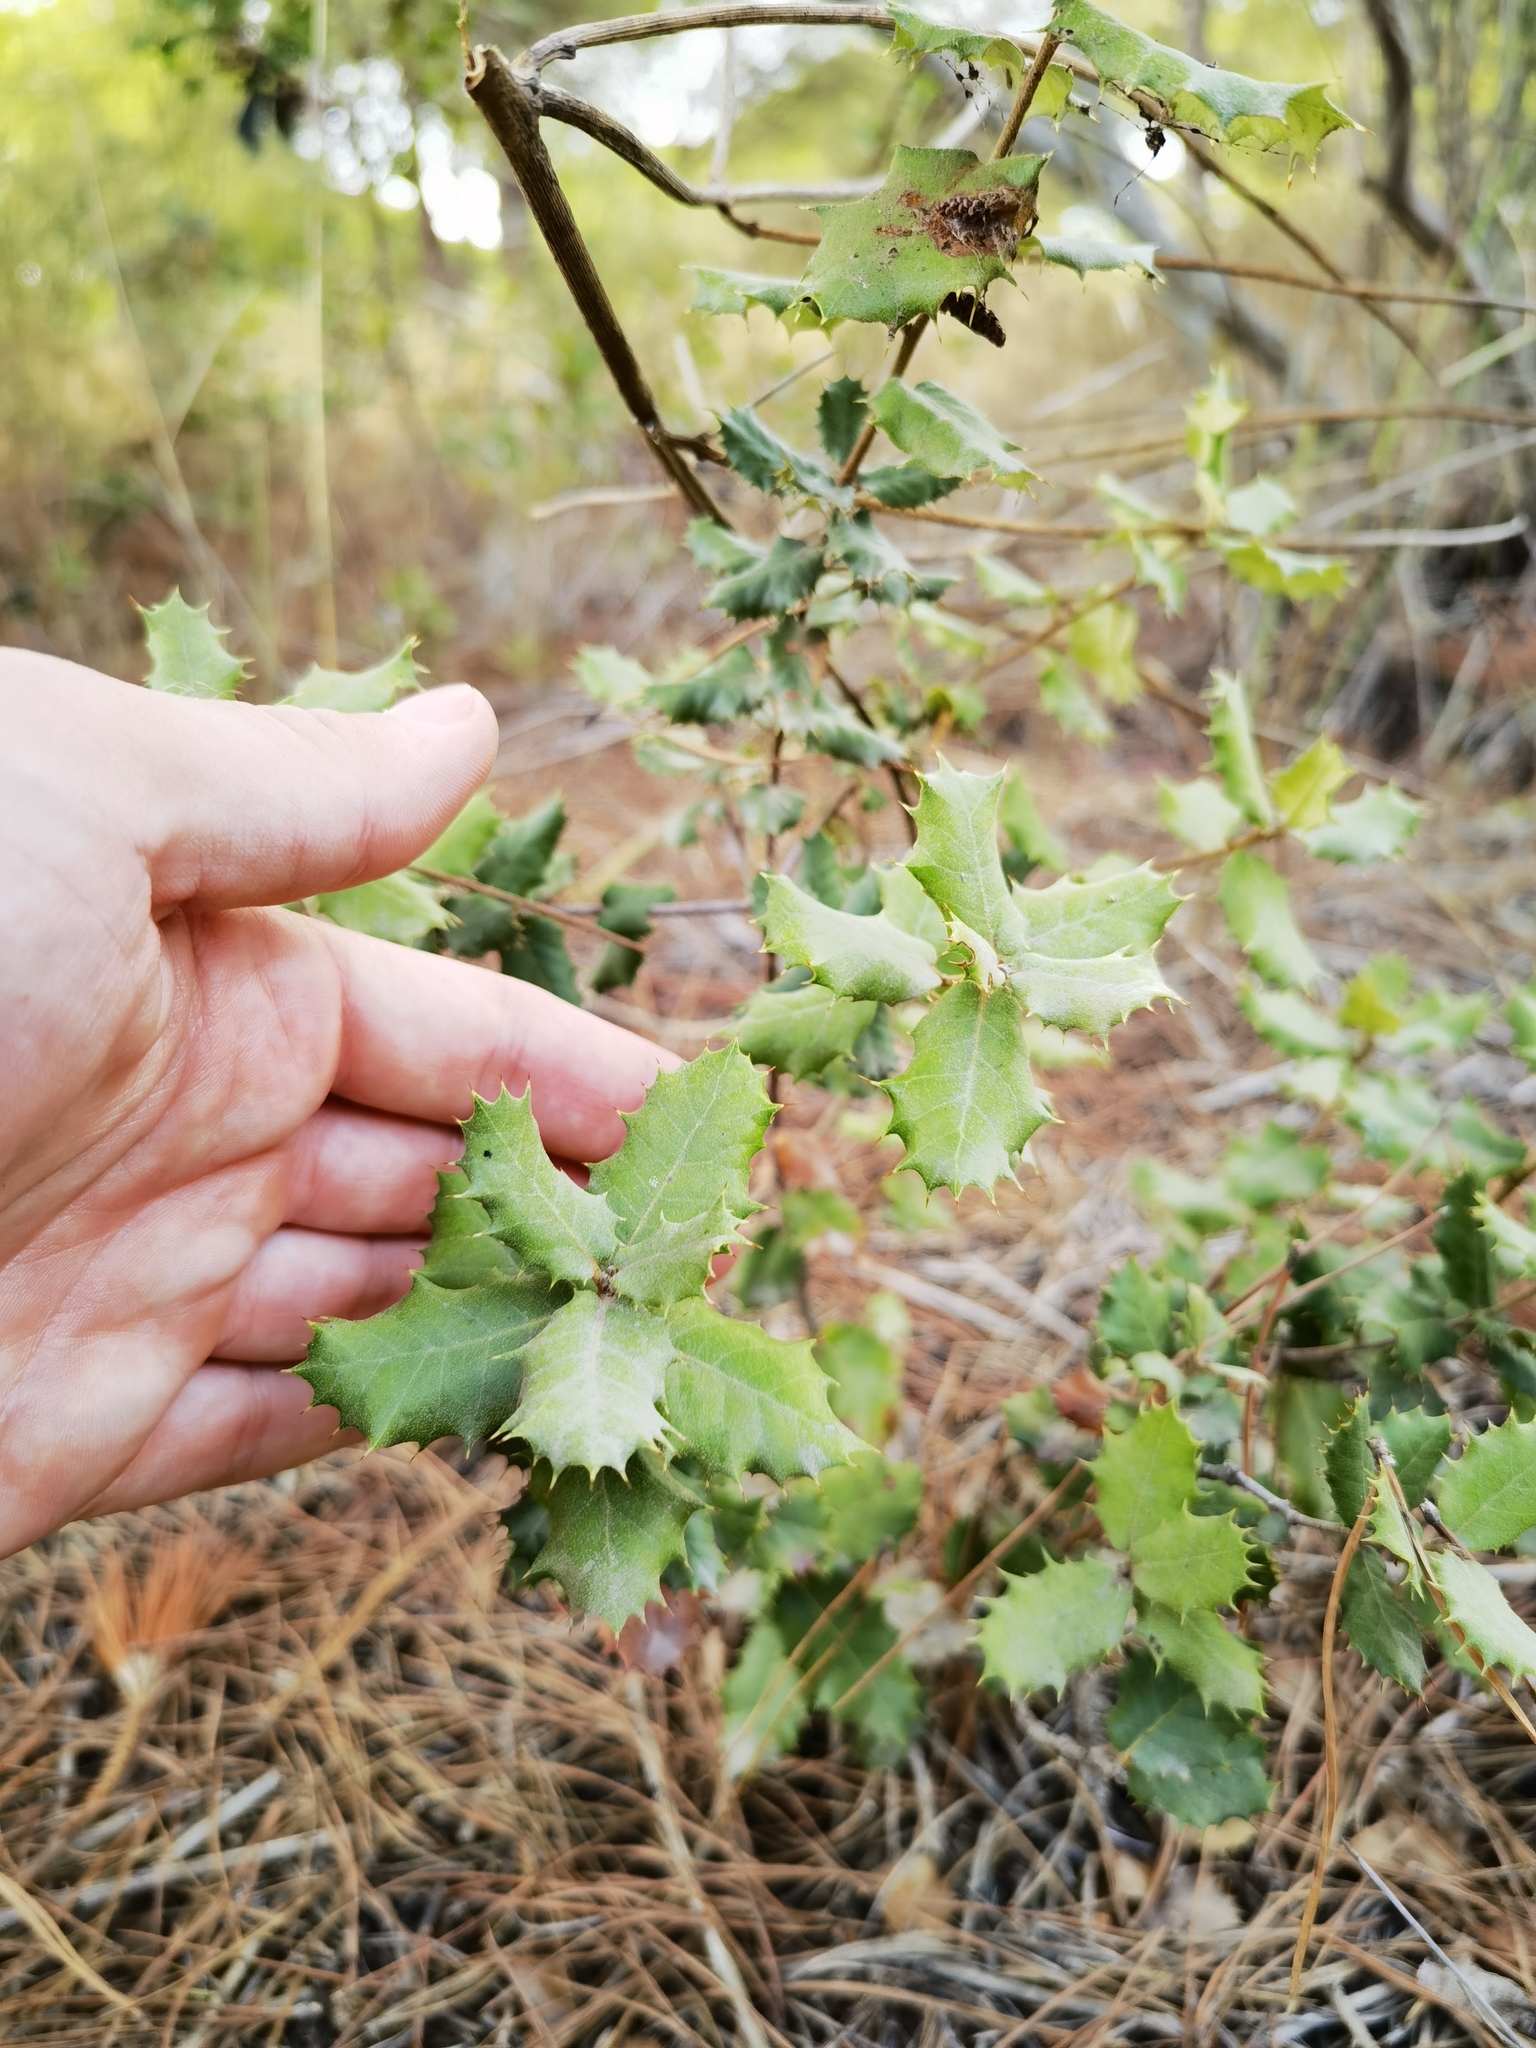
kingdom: Plantae
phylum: Tracheophyta
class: Magnoliopsida
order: Fagales
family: Fagaceae
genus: Quercus
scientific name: Quercus rotundifolia
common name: Holm oak
